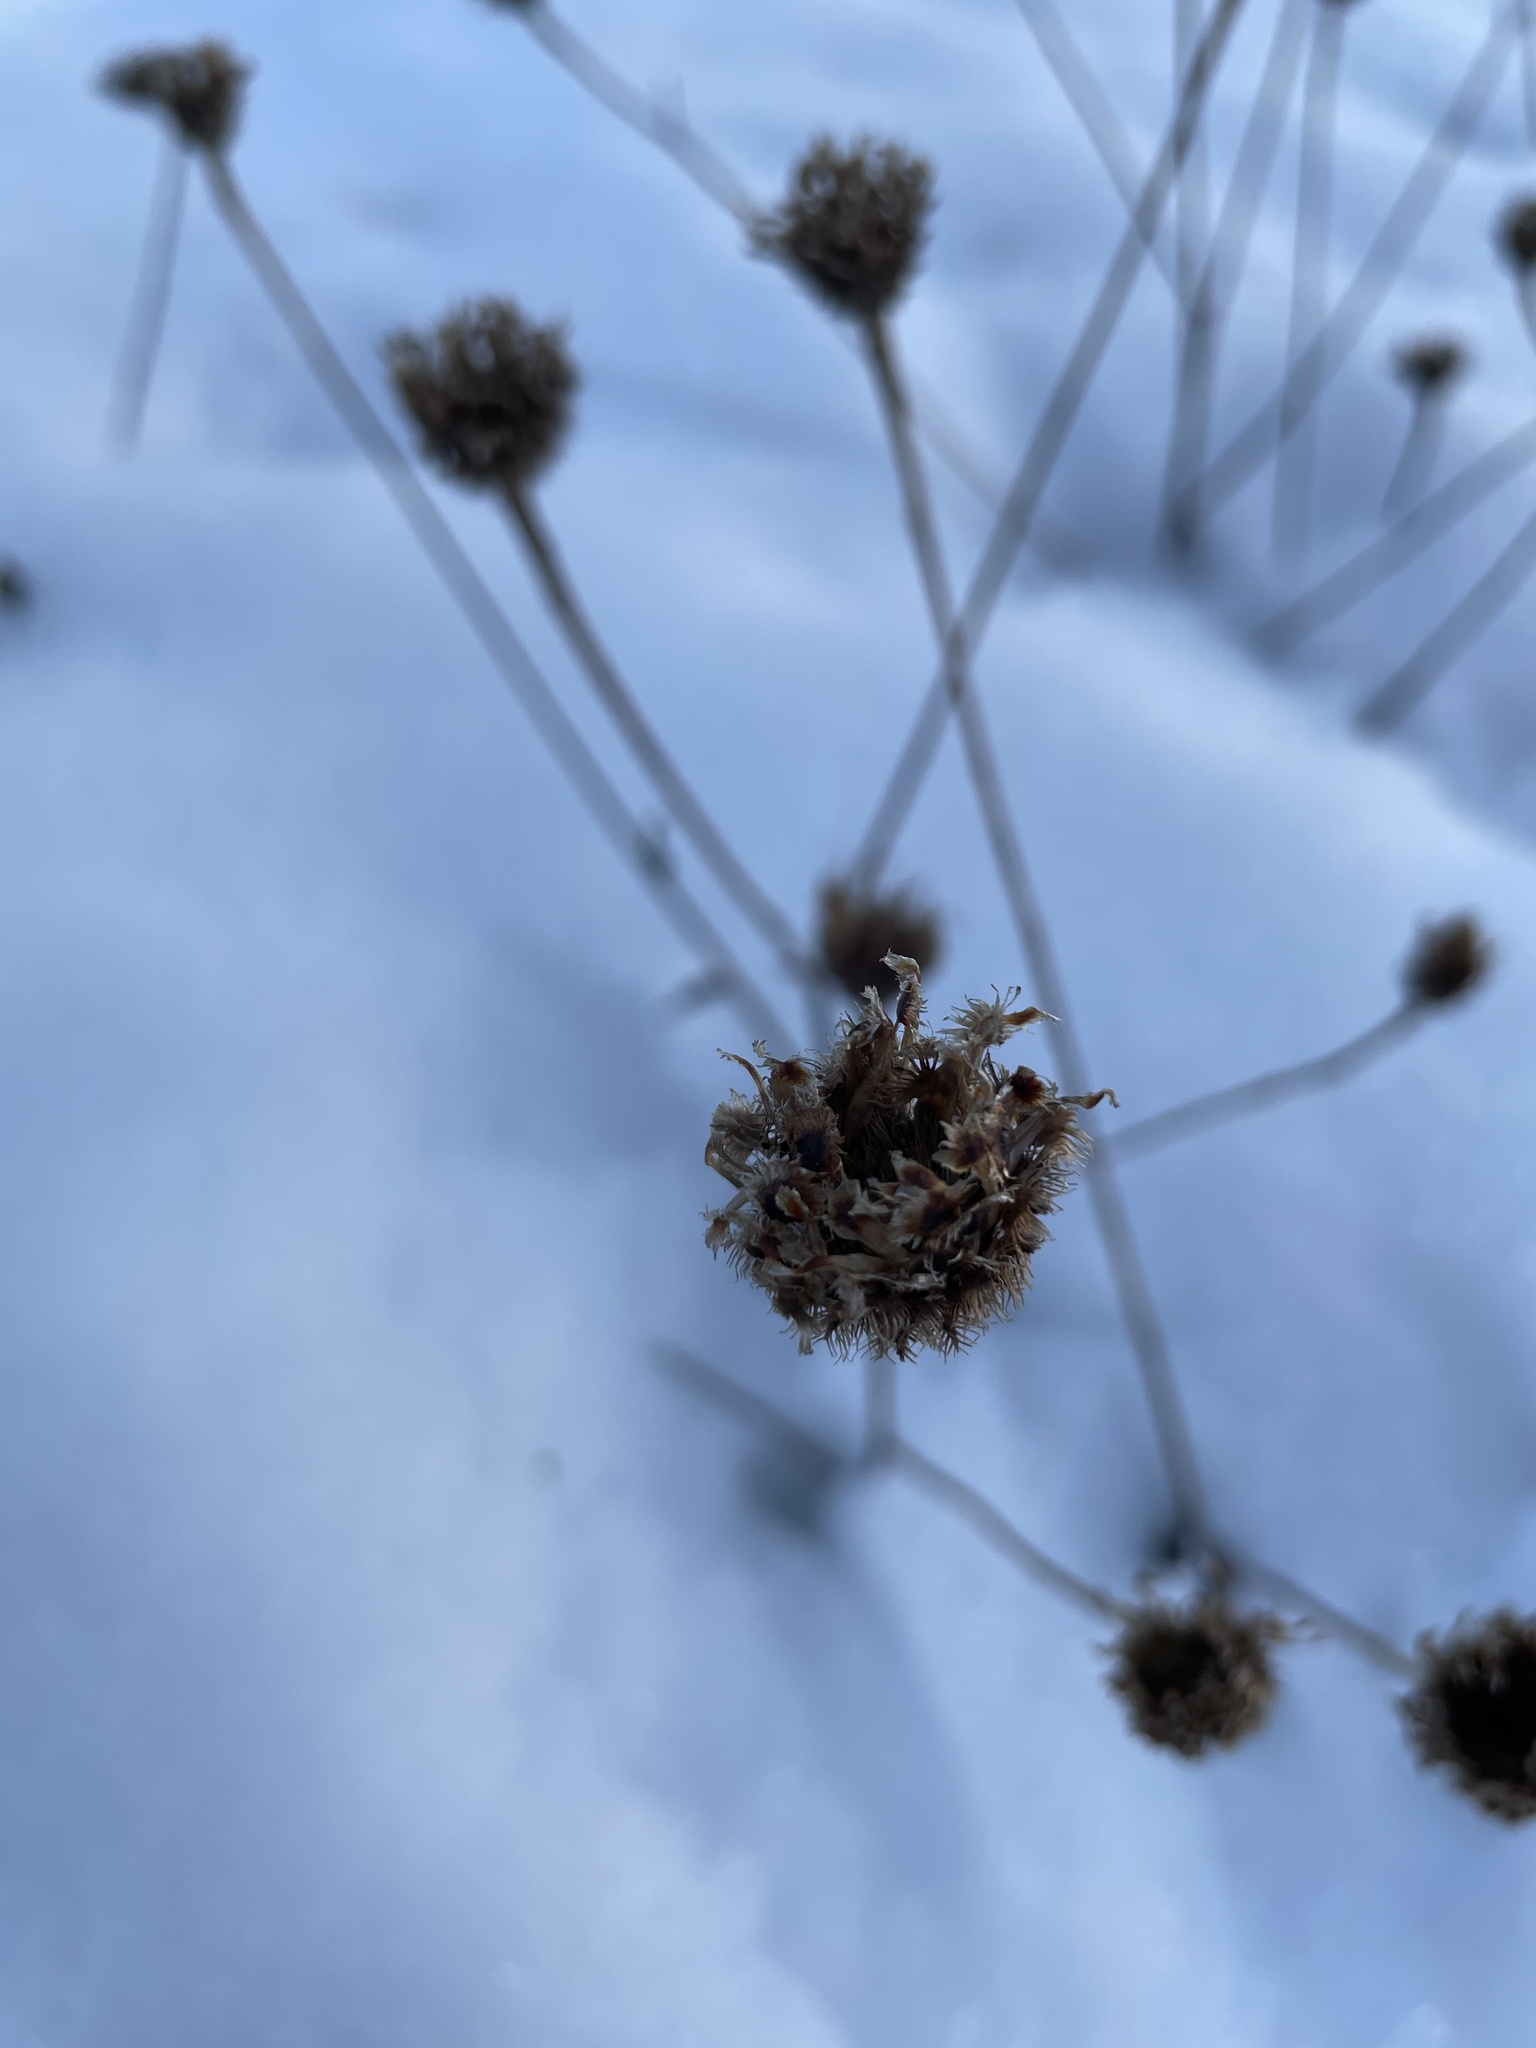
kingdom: Plantae
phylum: Tracheophyta
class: Magnoliopsida
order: Asterales
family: Asteraceae
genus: Centaurea
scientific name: Centaurea nigra
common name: Lesser knapweed
